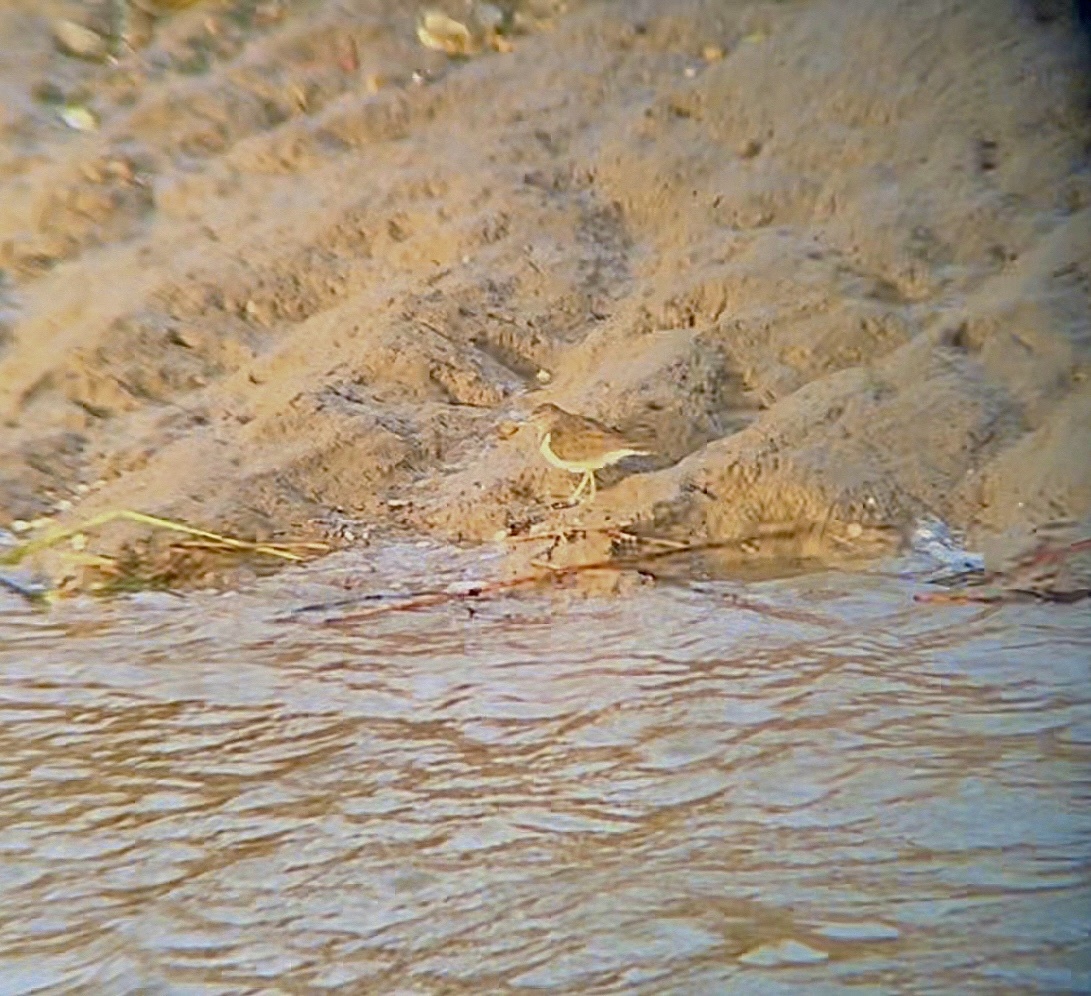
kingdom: Animalia
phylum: Chordata
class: Aves
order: Charadriiformes
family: Scolopacidae
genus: Actitis
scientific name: Actitis hypoleucos
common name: Common sandpiper
